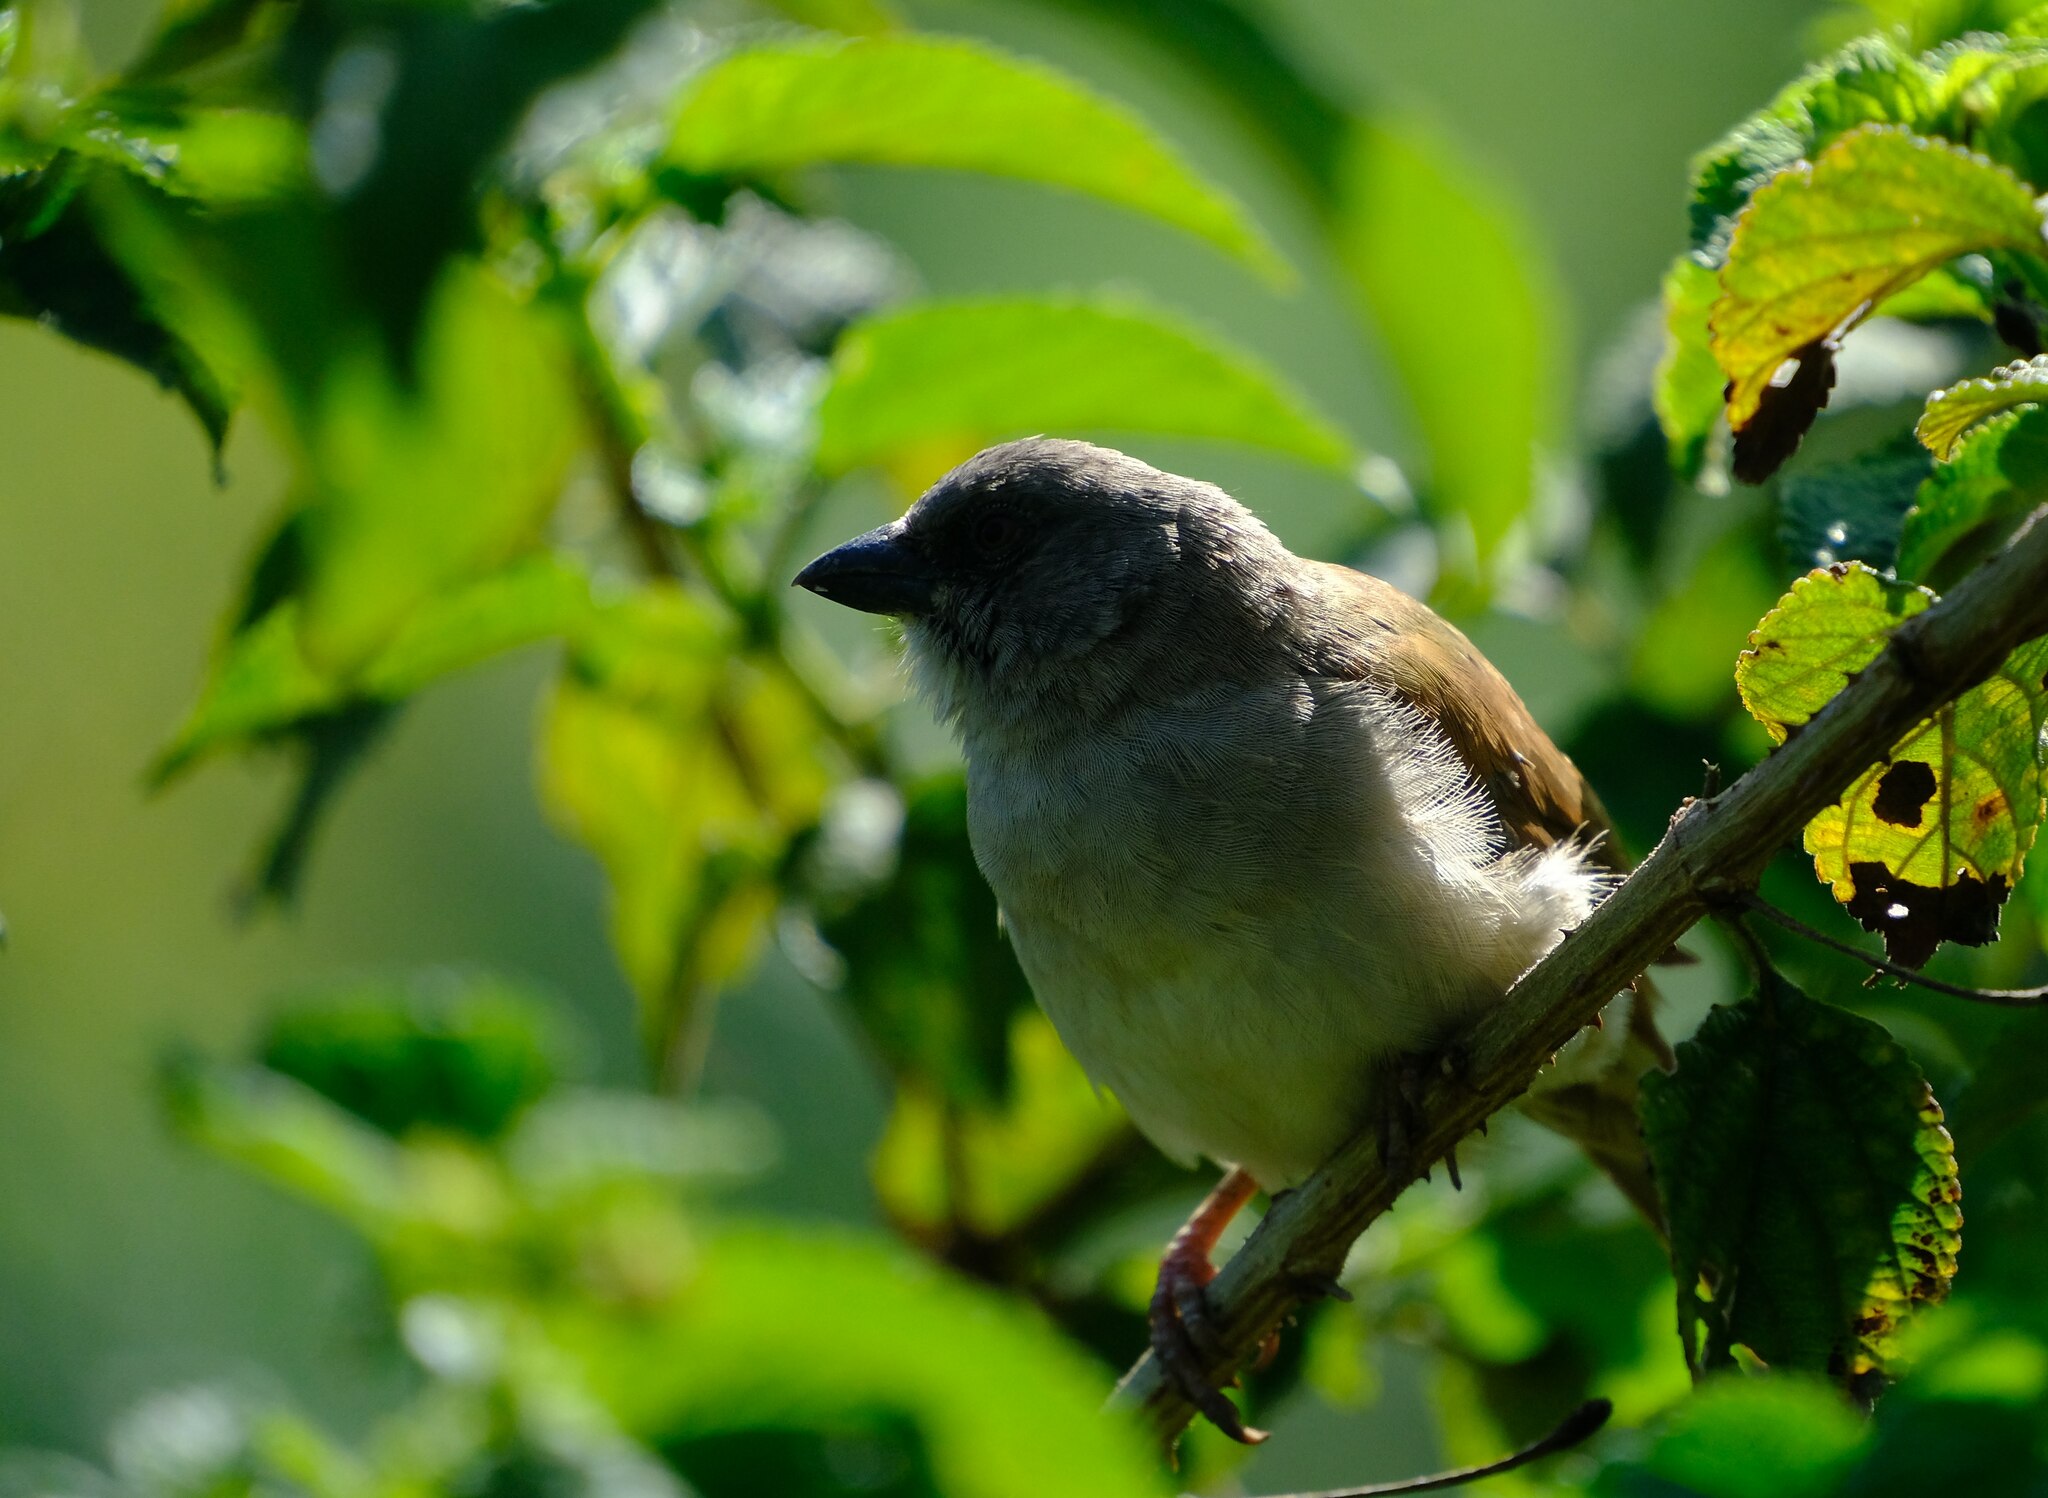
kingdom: Animalia
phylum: Chordata
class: Aves
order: Passeriformes
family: Passeridae
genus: Passer
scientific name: Passer griseus
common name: Northern grey-headed sparrow
